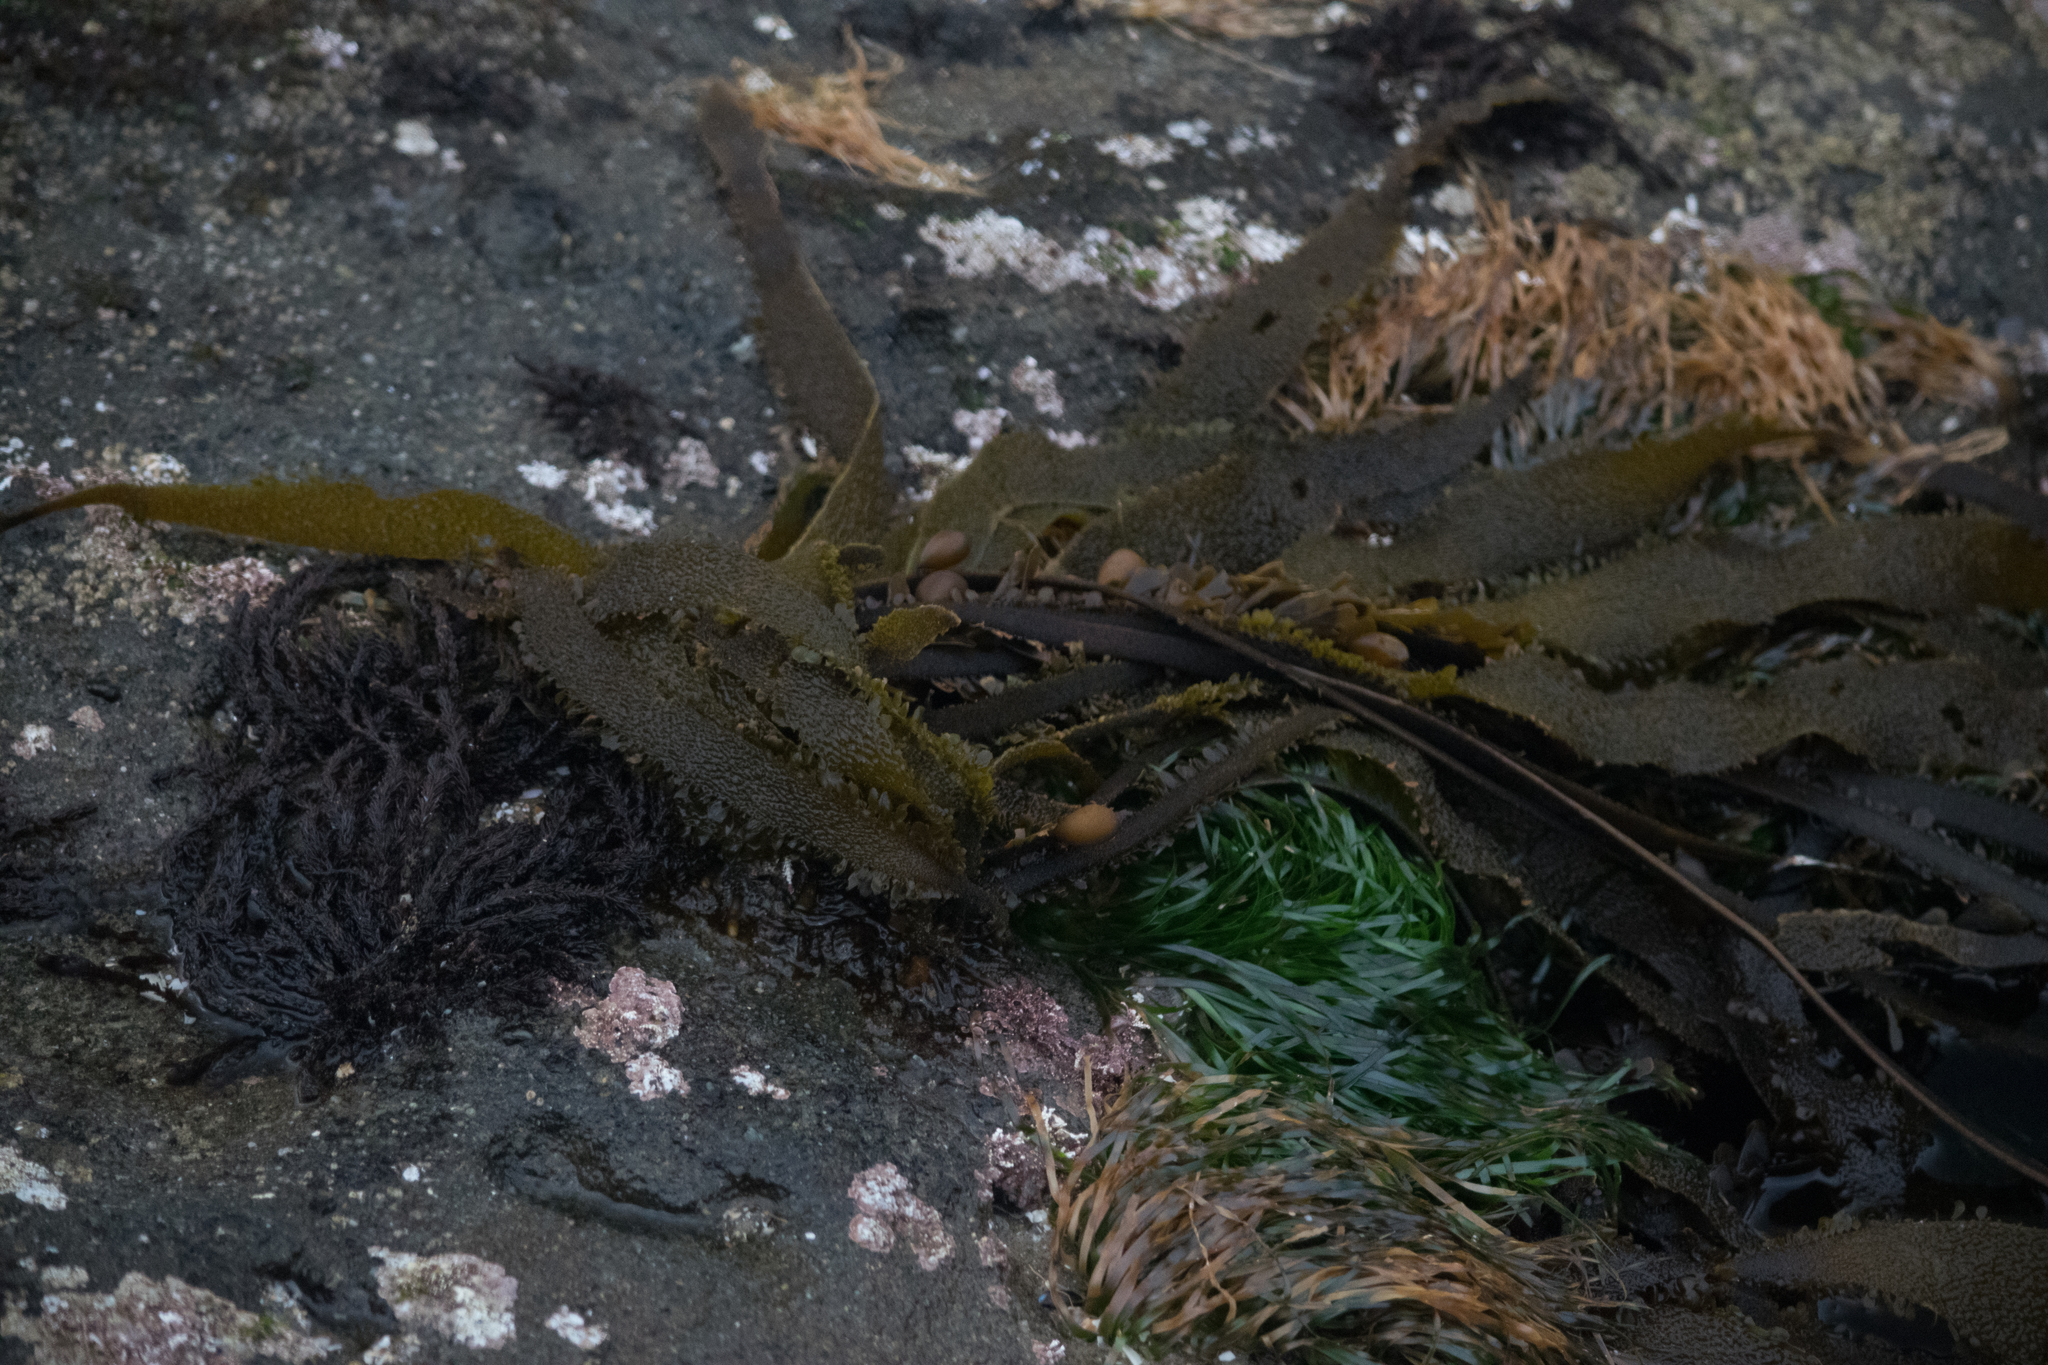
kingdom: Plantae
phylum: Rhodophyta
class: Florideophyceae
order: Ceramiales
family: Rhodomelaceae
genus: Neorhodomela
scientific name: Neorhodomela larix
